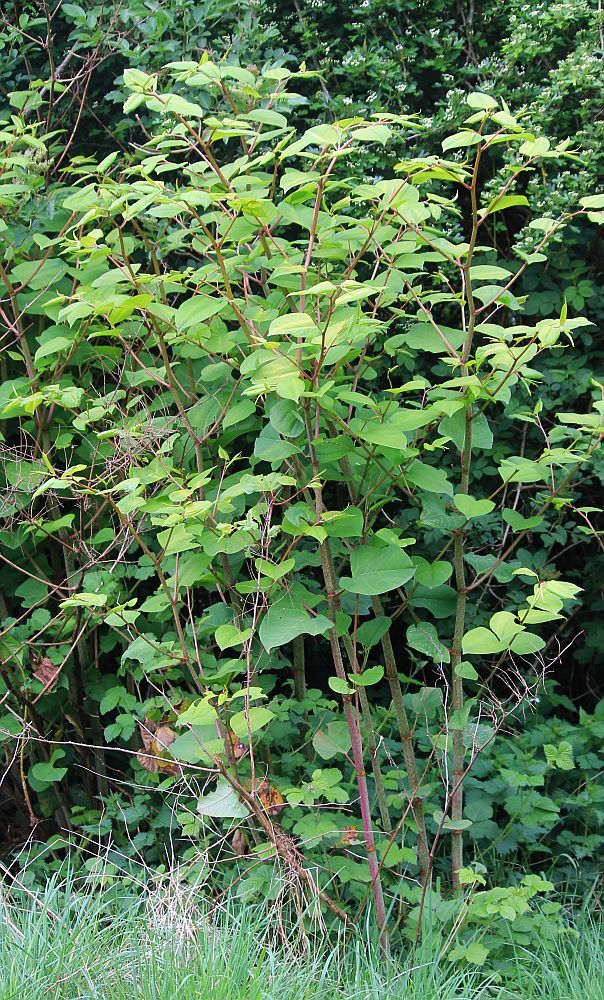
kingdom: Plantae
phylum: Tracheophyta
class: Magnoliopsida
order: Caryophyllales
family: Polygonaceae
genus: Reynoutria
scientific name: Reynoutria japonica
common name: Japanese knotweed
